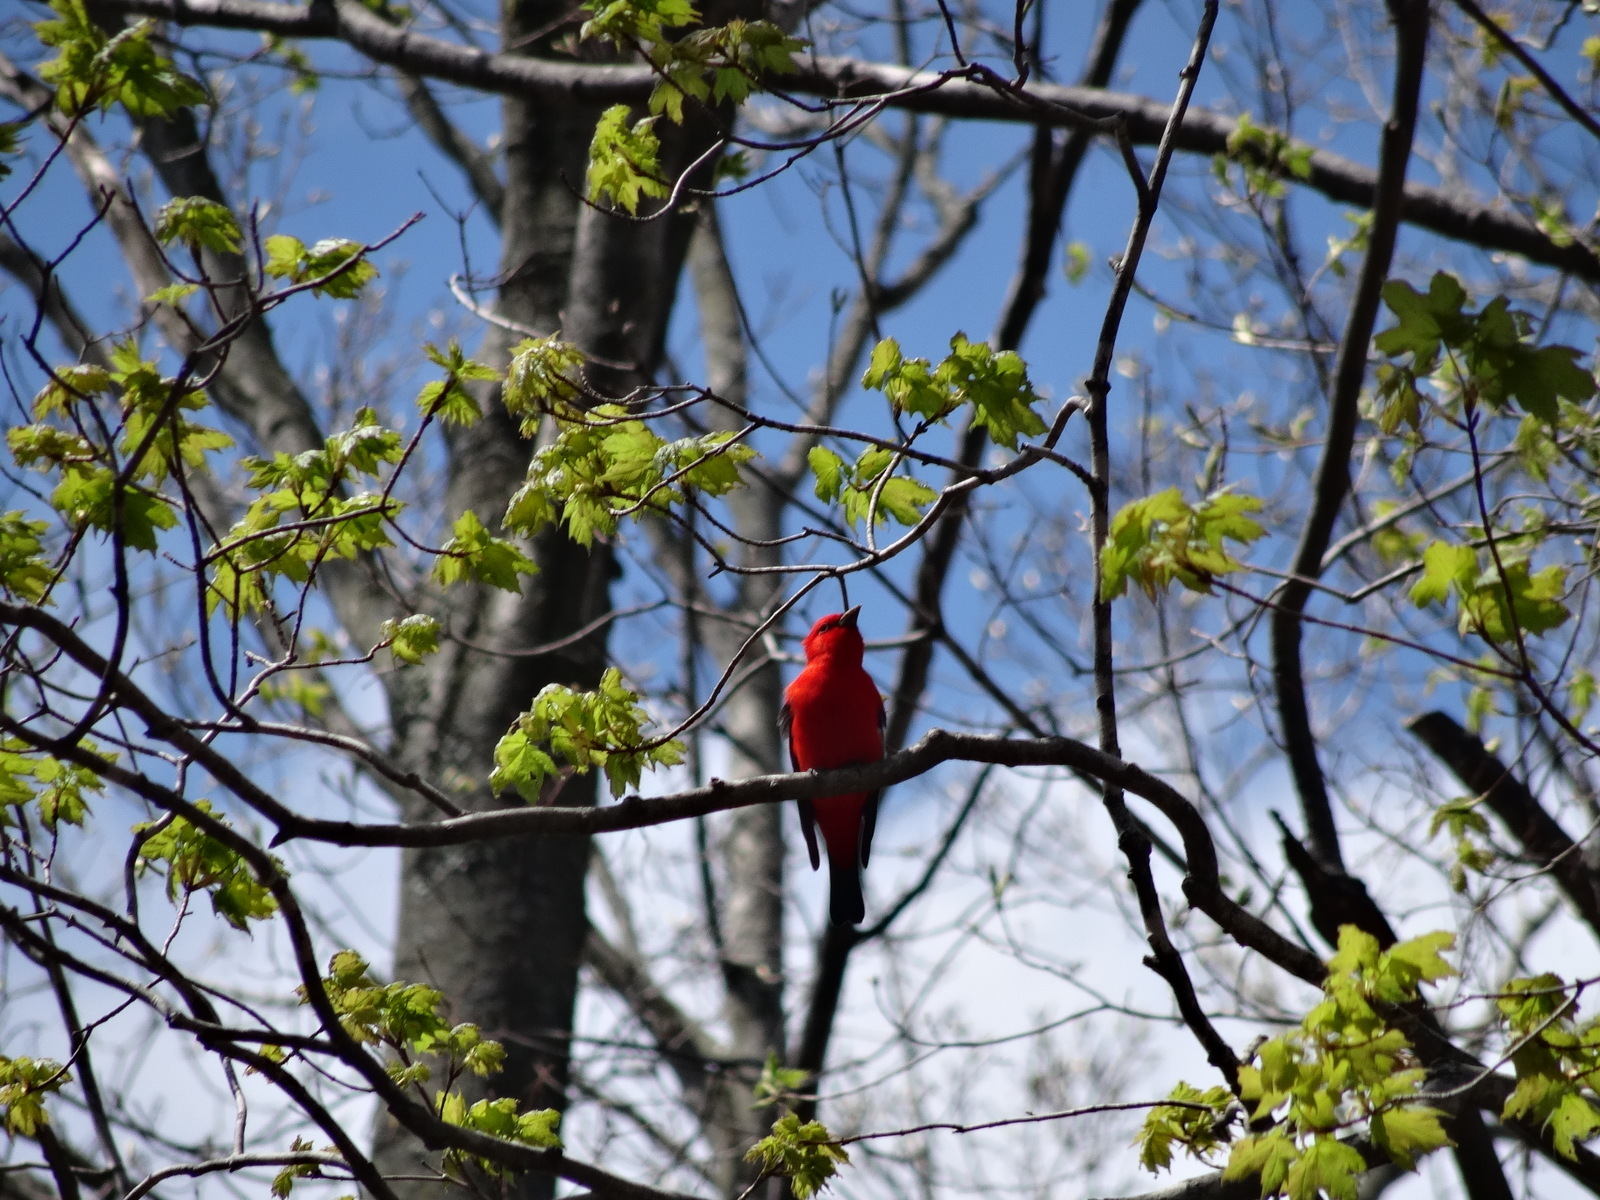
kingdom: Animalia
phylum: Chordata
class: Aves
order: Passeriformes
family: Cardinalidae
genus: Piranga
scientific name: Piranga olivacea
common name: Scarlet tanager
